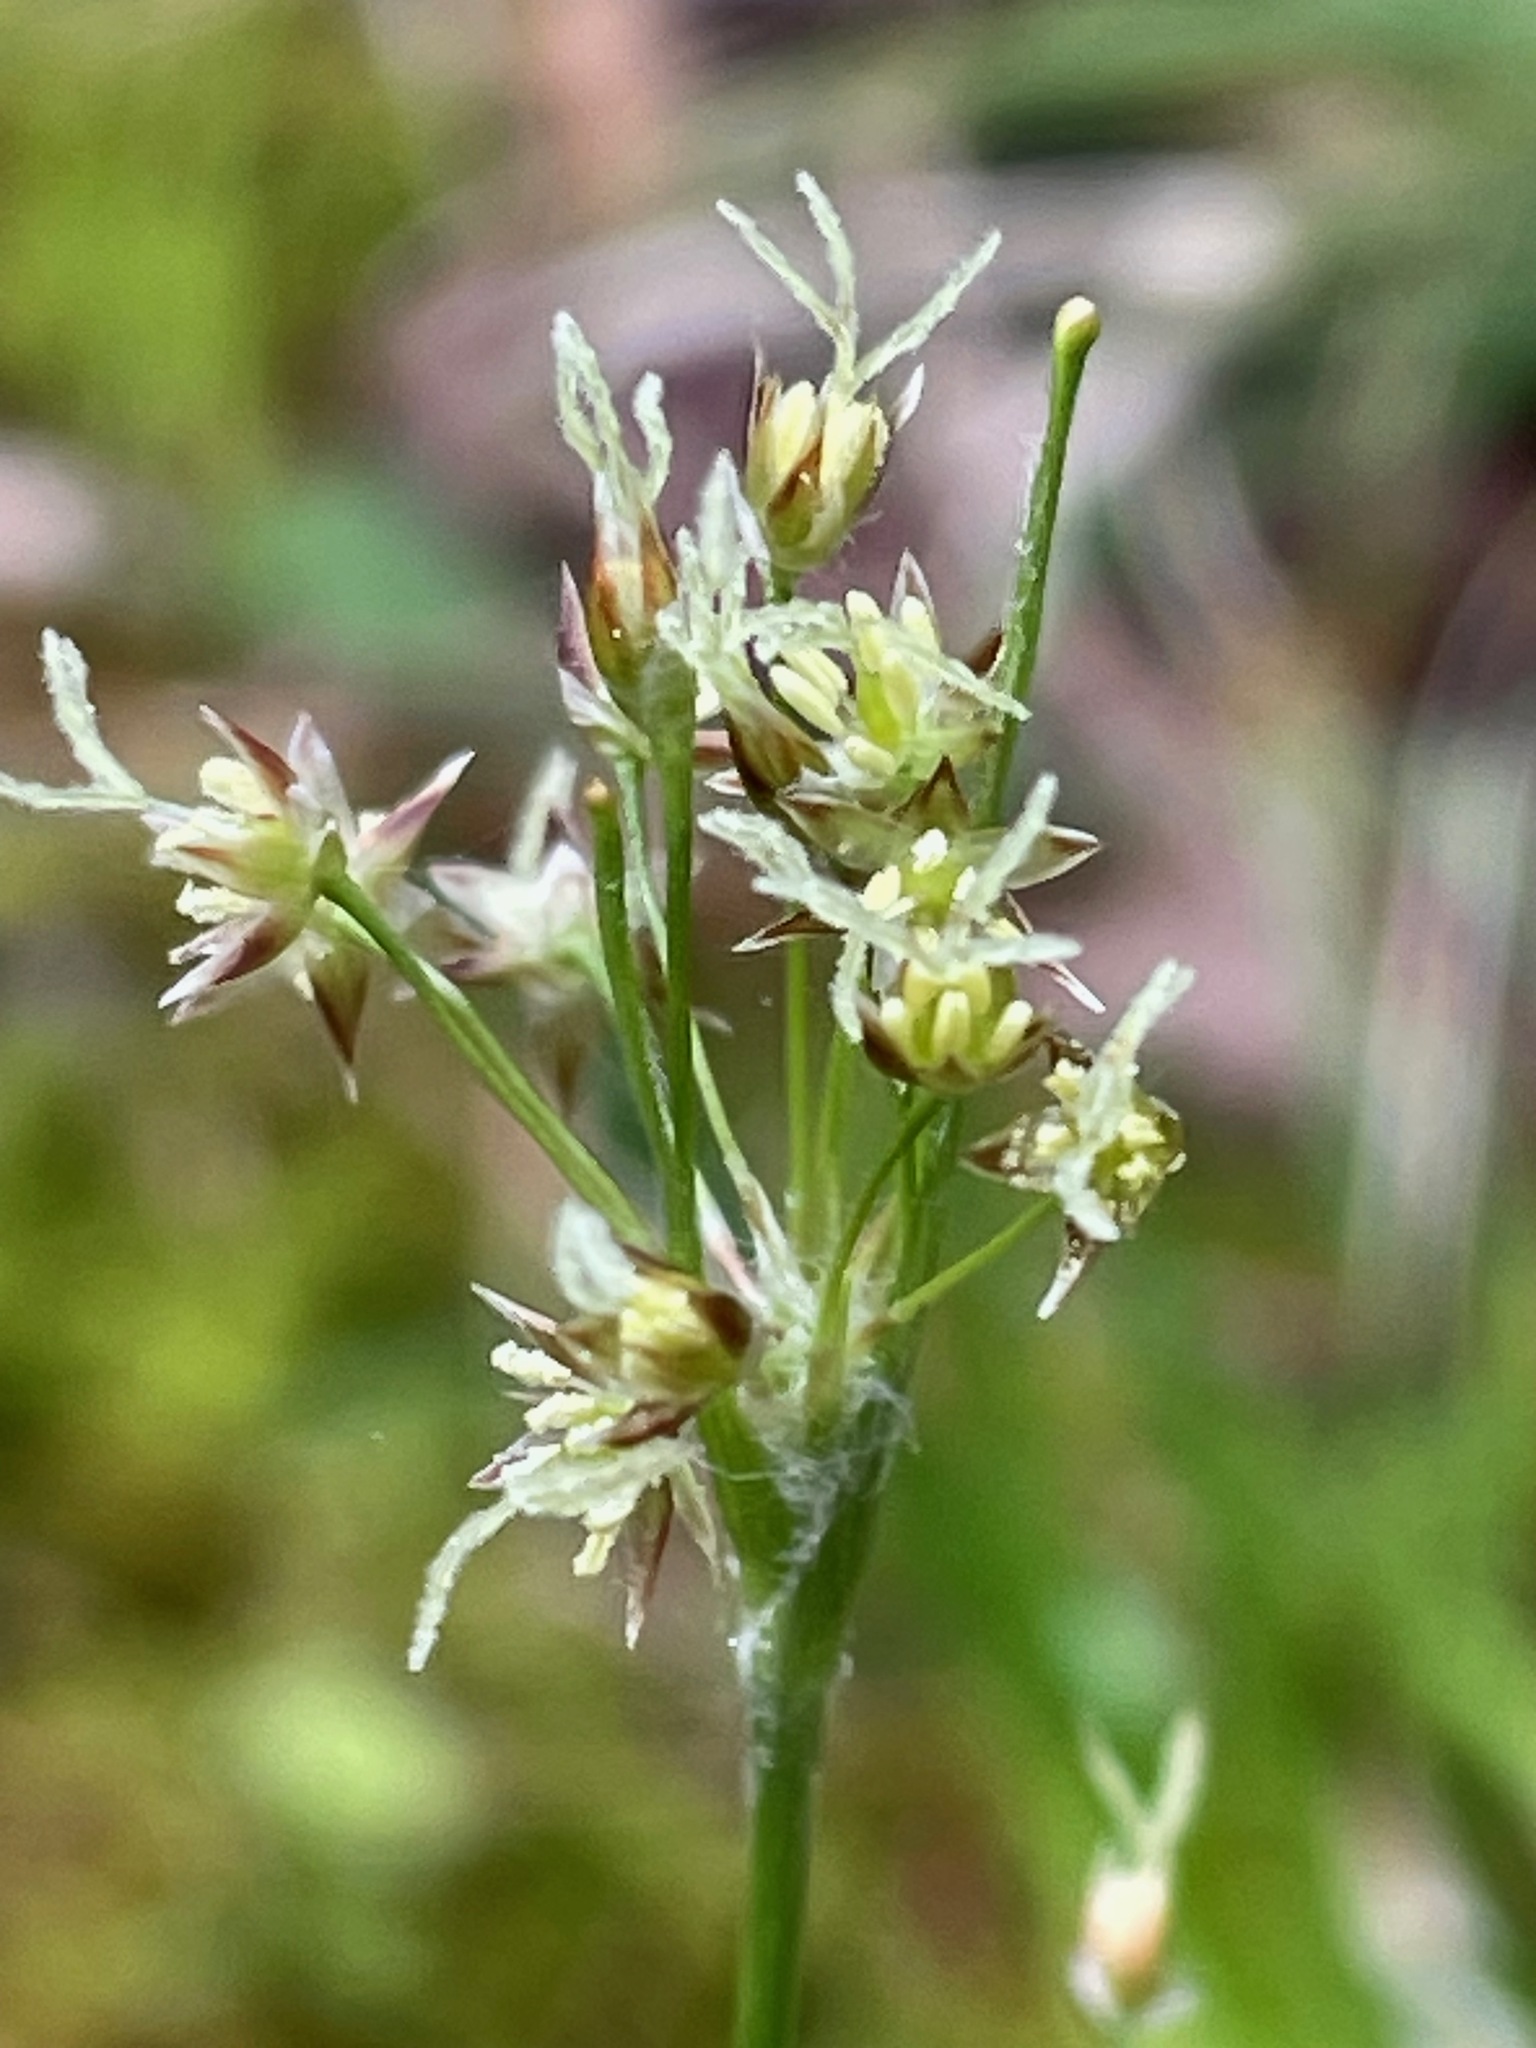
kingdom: Plantae
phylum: Tracheophyta
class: Liliopsida
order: Poales
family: Juncaceae
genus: Luzula
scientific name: Luzula acuminata
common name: Hairy woodrush
